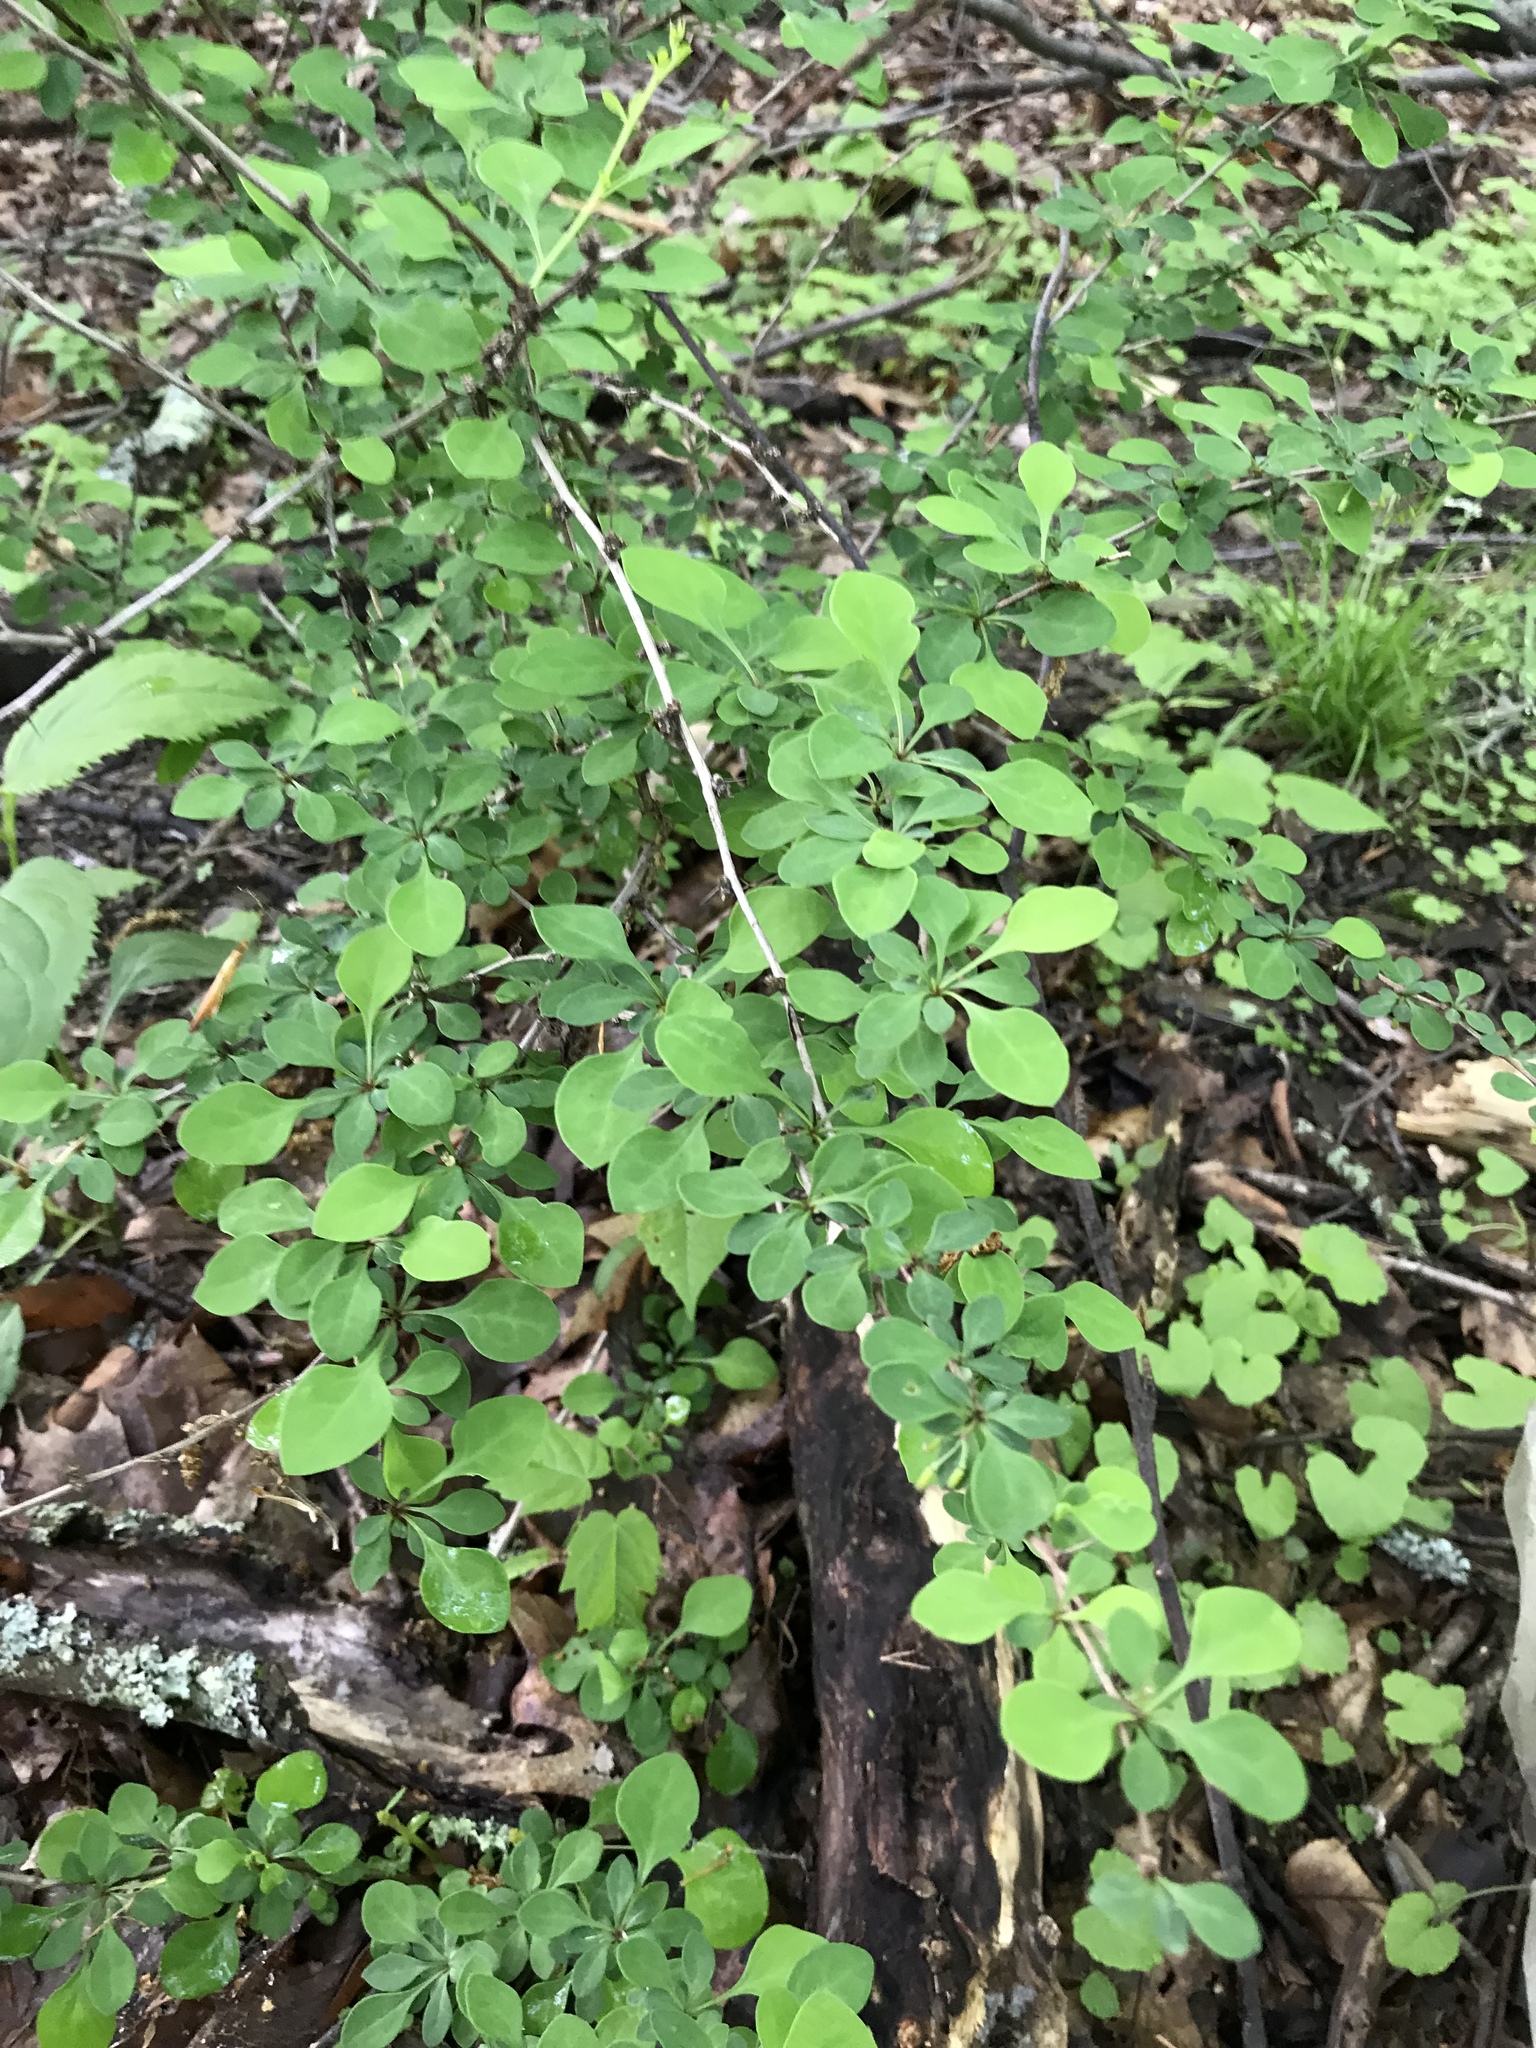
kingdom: Plantae
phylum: Tracheophyta
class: Magnoliopsida
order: Ranunculales
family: Berberidaceae
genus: Berberis
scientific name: Berberis thunbergii
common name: Japanese barberry
